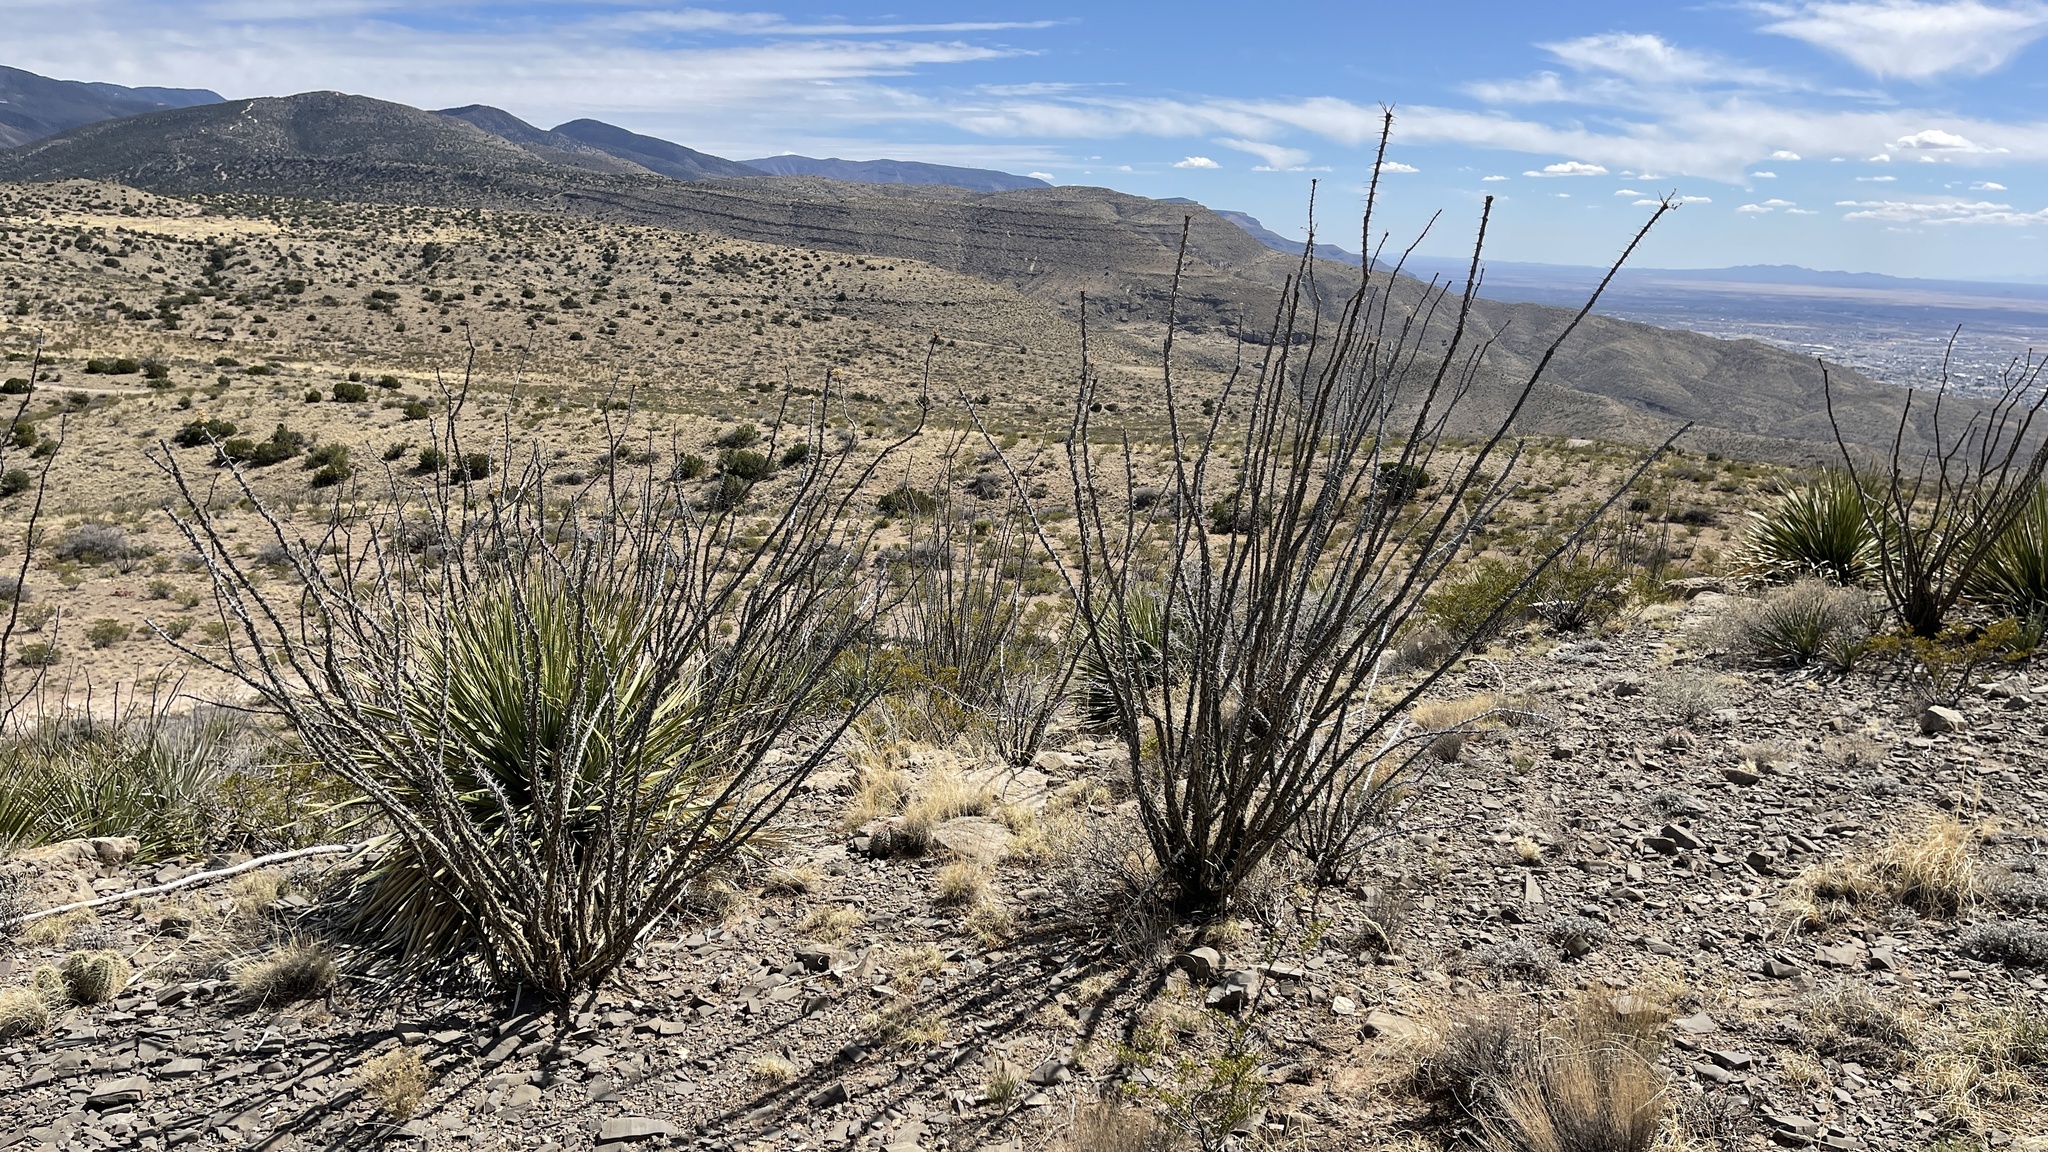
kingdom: Plantae
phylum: Tracheophyta
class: Magnoliopsida
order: Ericales
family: Fouquieriaceae
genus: Fouquieria
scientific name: Fouquieria splendens
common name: Vine-cactus
